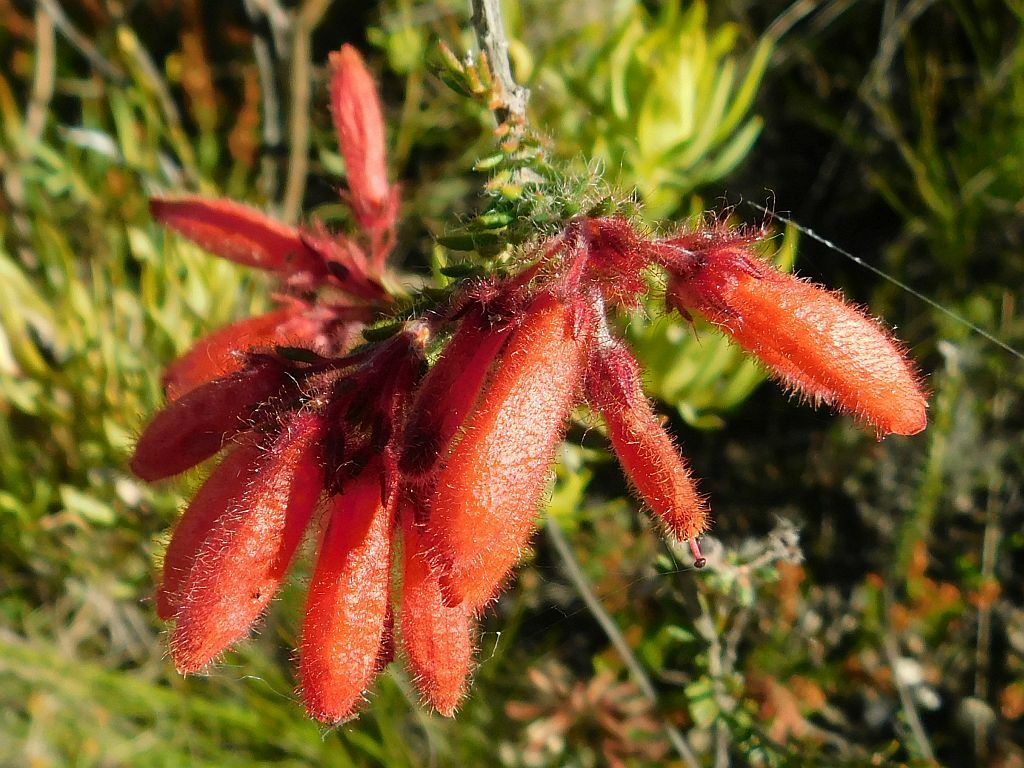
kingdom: Plantae
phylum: Tracheophyta
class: Magnoliopsida
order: Ericales
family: Ericaceae
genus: Erica
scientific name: Erica cerinthoides
